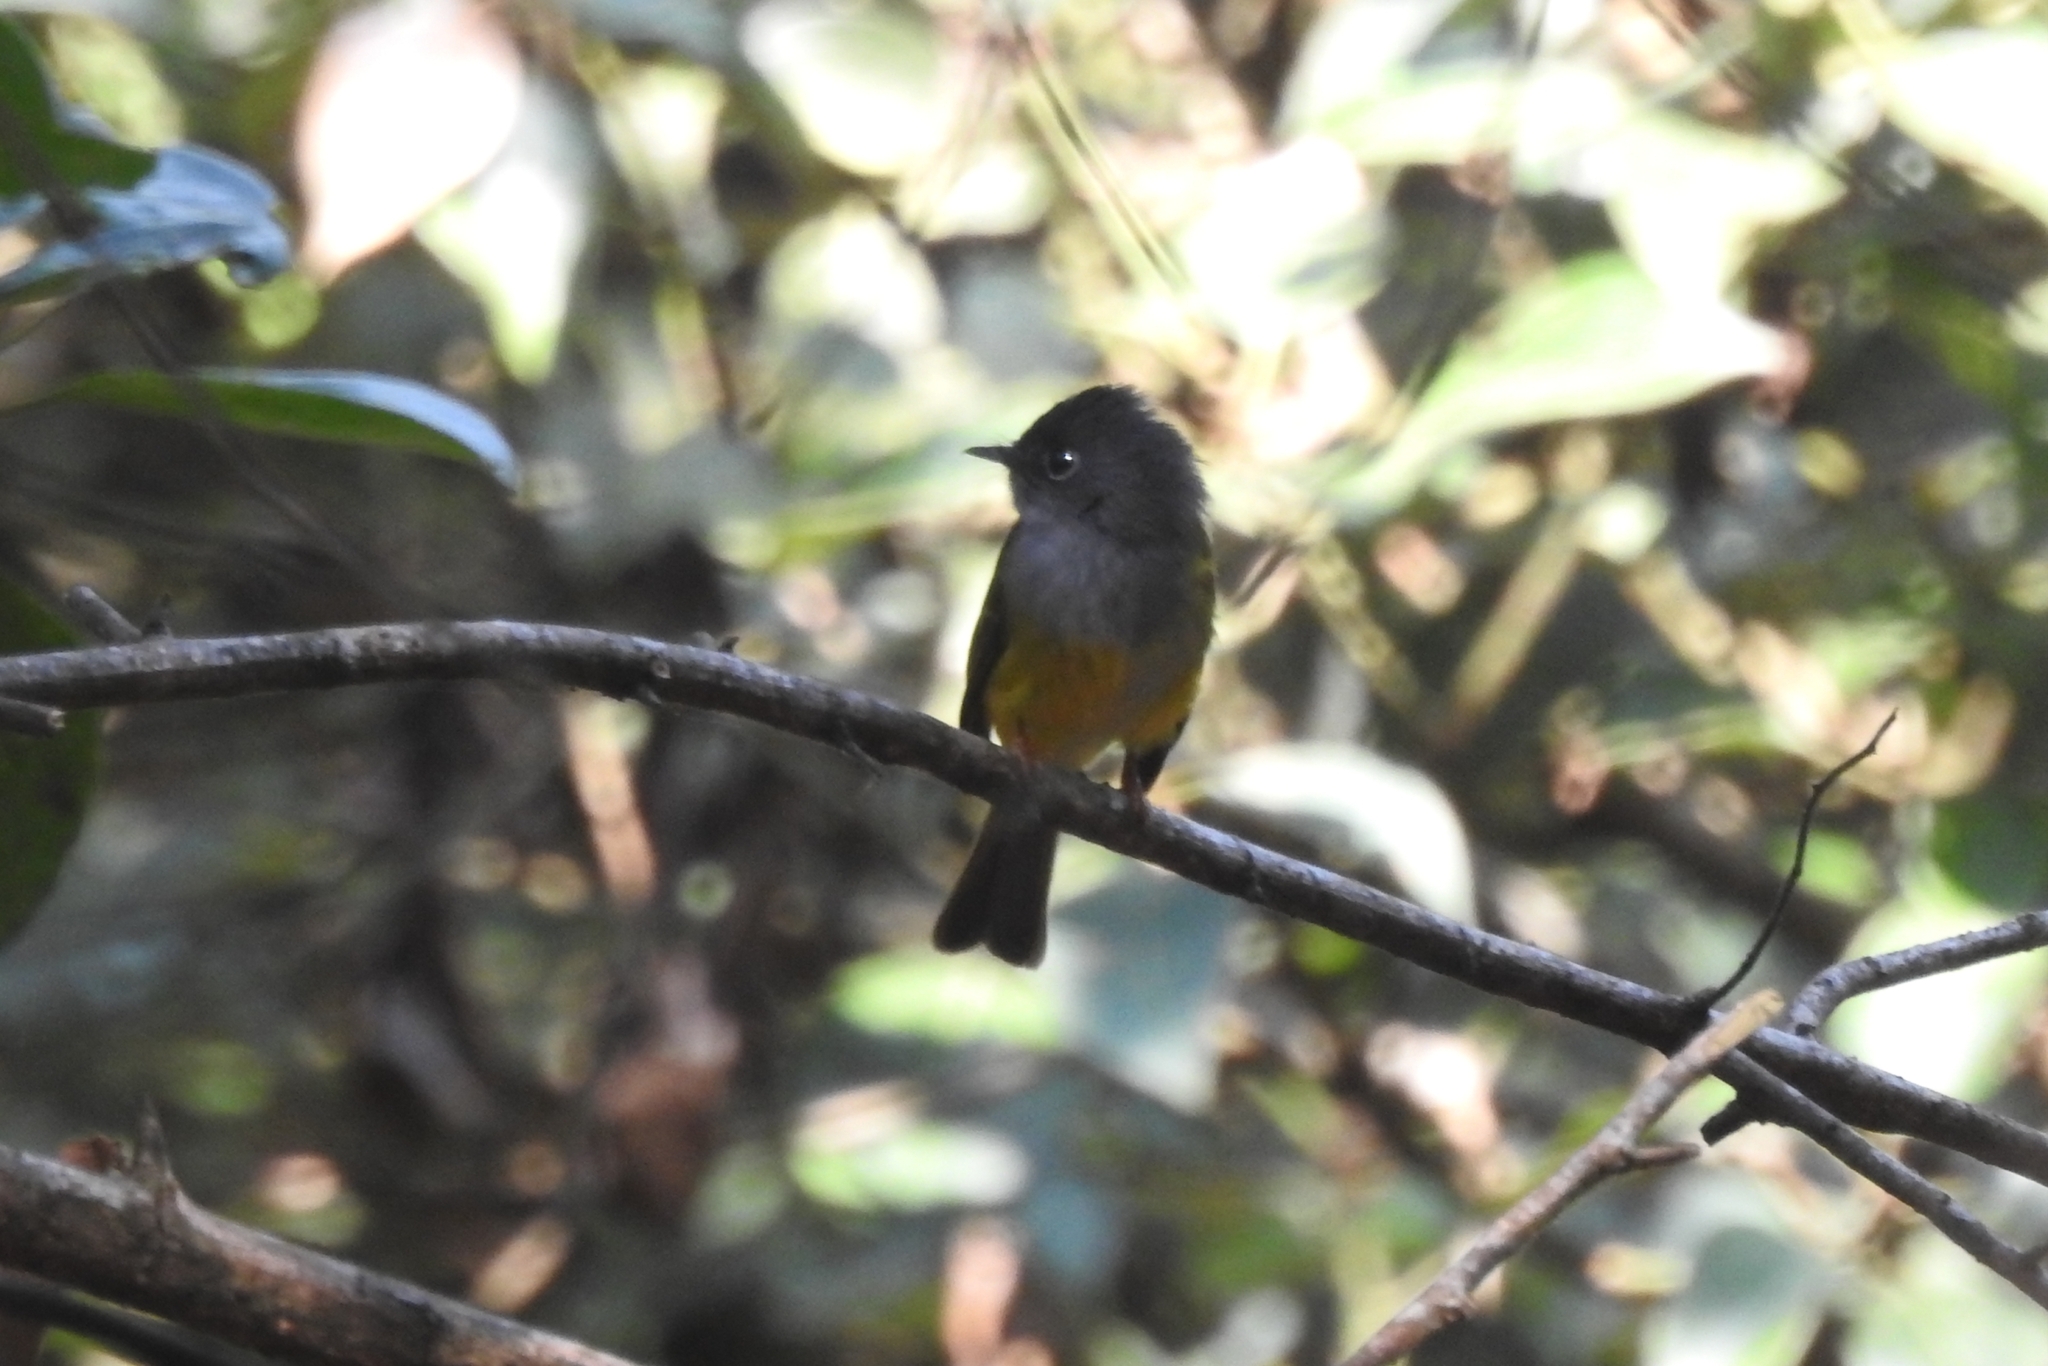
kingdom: Animalia
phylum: Chordata
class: Aves
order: Passeriformes
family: Stenostiridae
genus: Culicicapa
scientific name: Culicicapa ceylonensis
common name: Grey-headed canary-flycatcher
